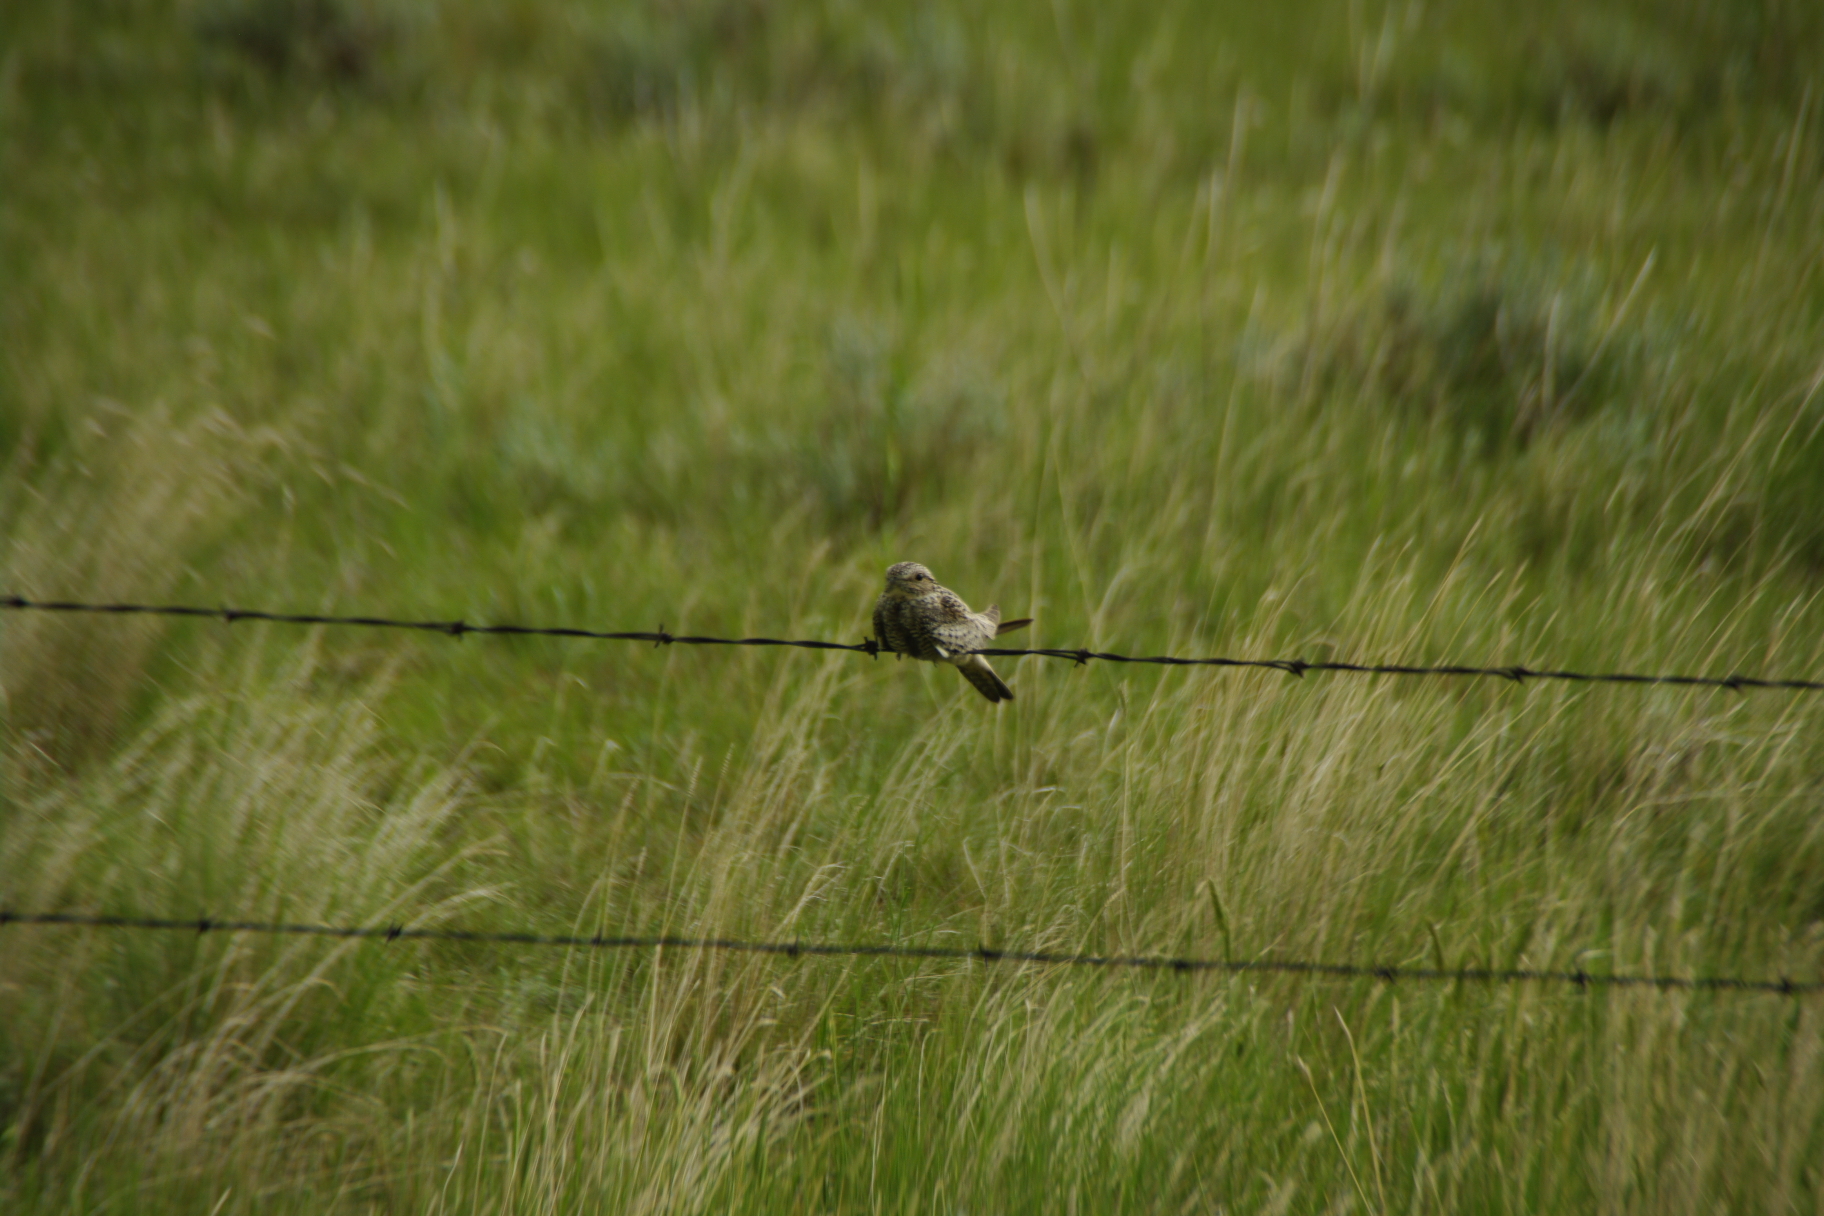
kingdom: Animalia
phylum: Chordata
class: Aves
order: Caprimulgiformes
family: Caprimulgidae
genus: Chordeiles
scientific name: Chordeiles minor
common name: Common nighthawk
